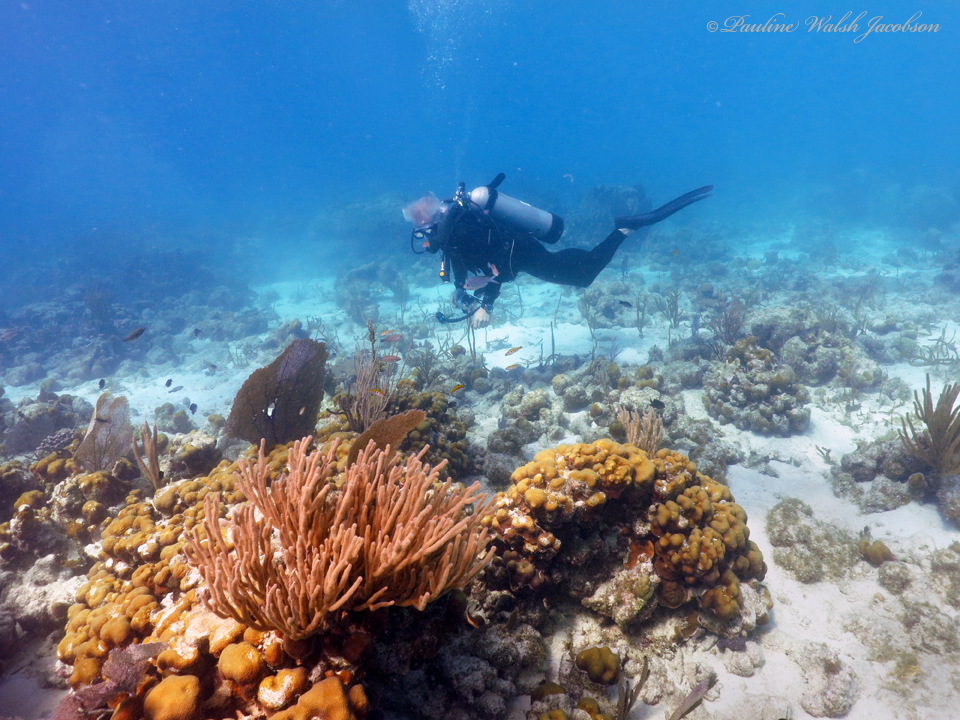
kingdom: Animalia
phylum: Cnidaria
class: Anthozoa
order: Scleractinia
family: Merulinidae
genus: Orbicella
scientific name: Orbicella annularis
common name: Boulder star coral
